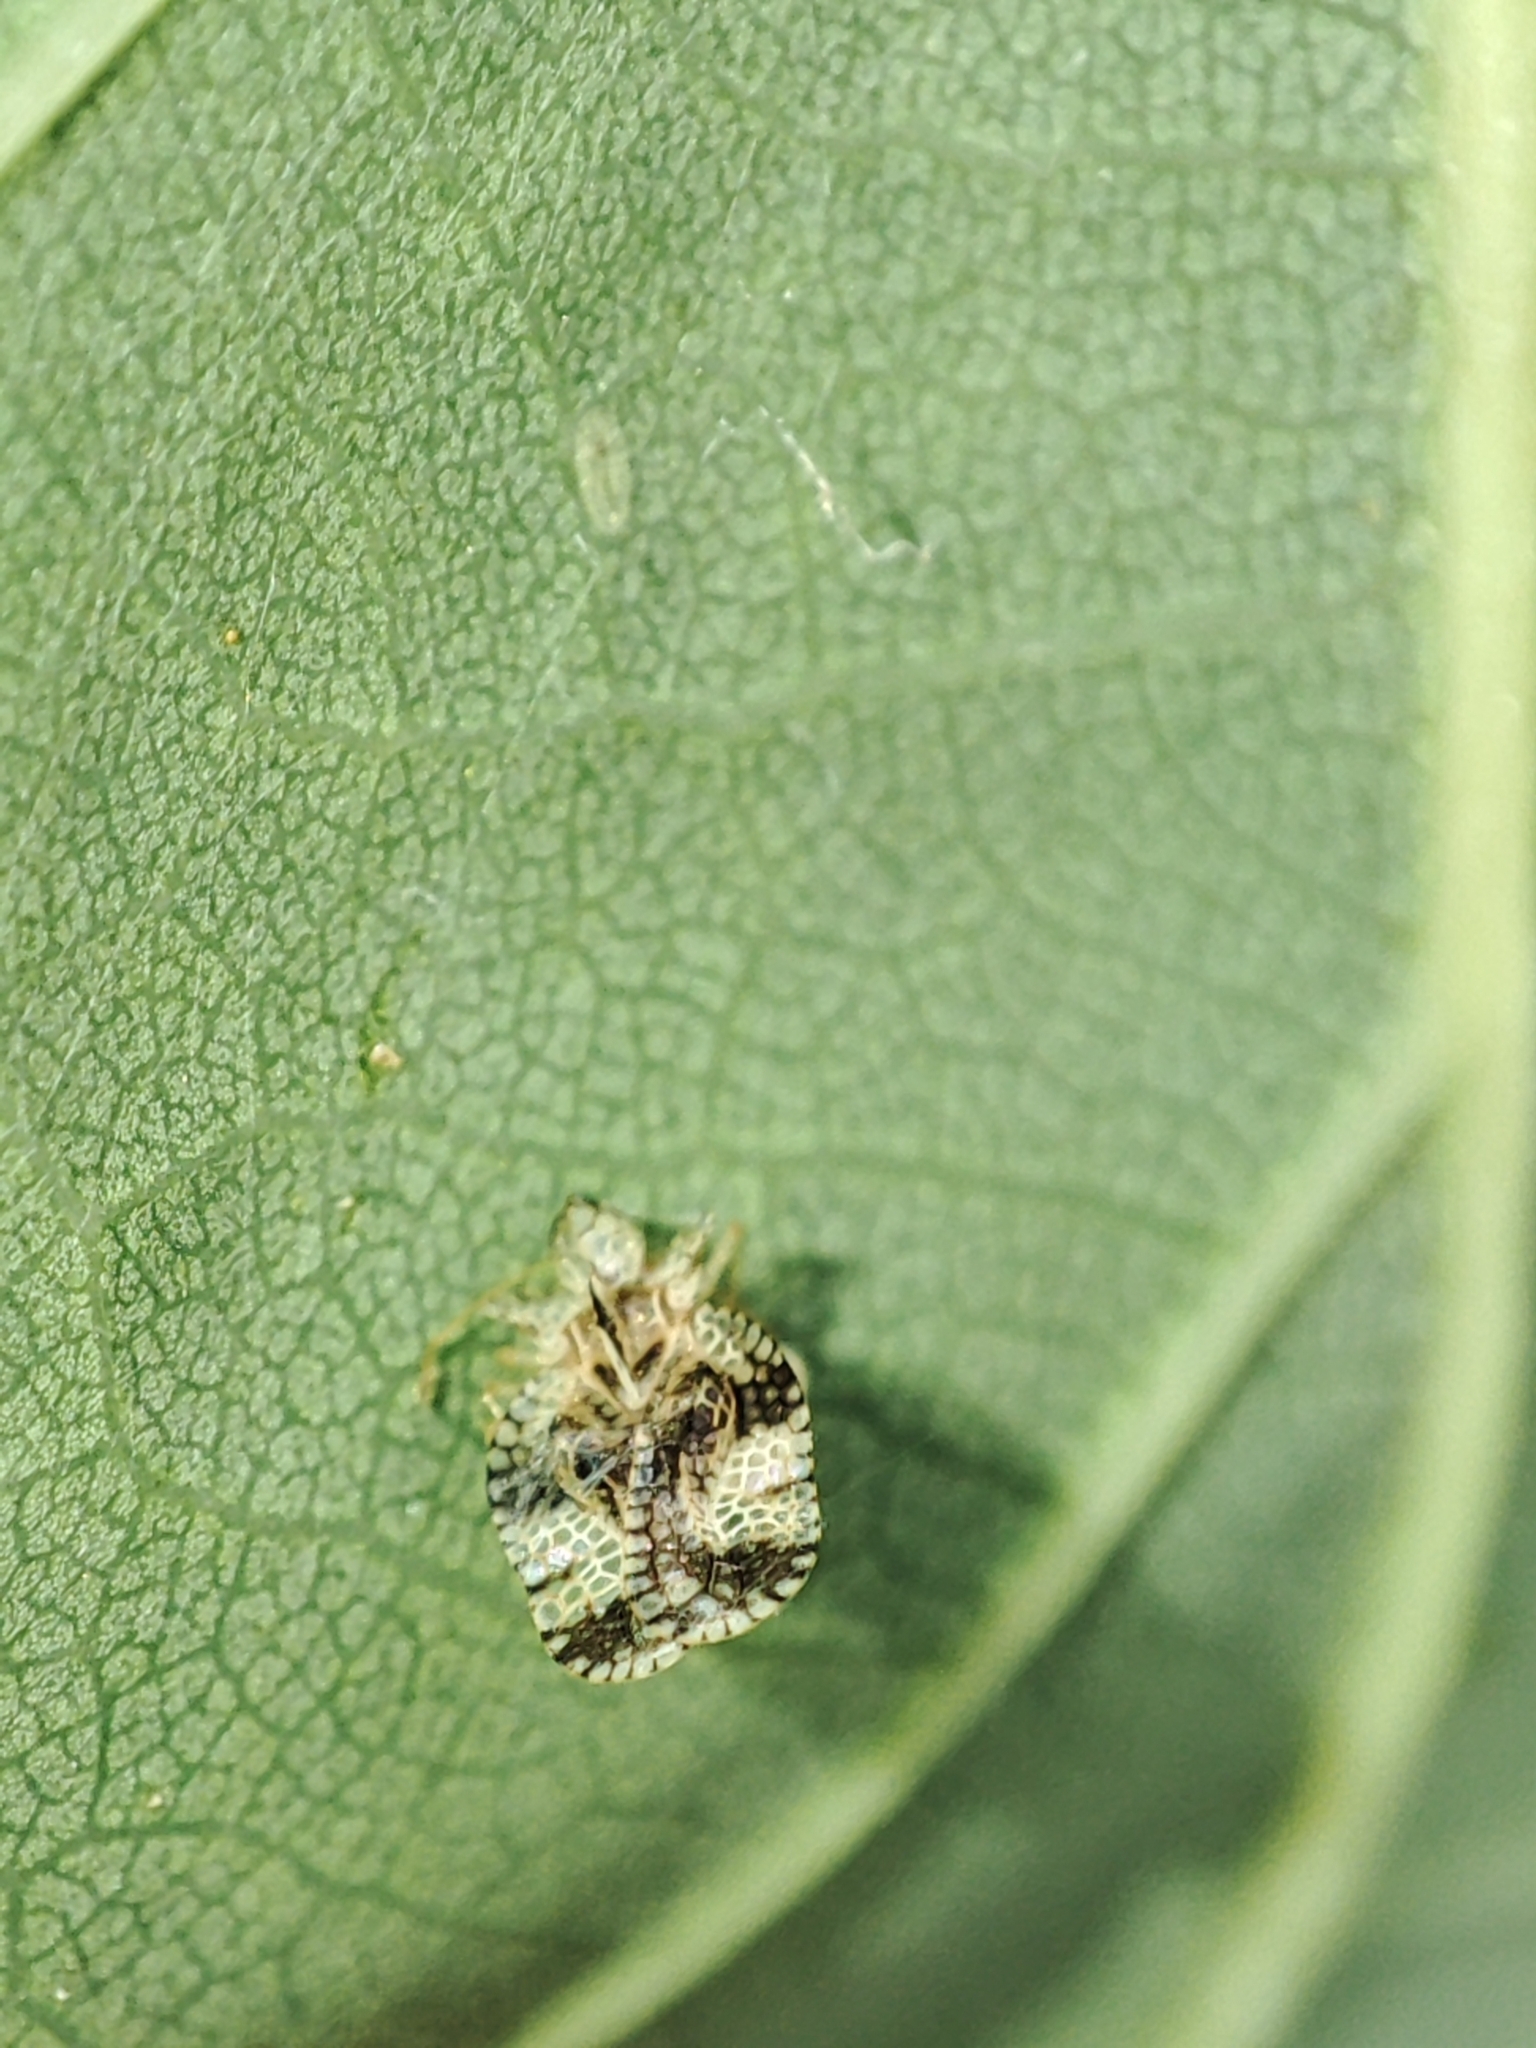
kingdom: Animalia
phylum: Arthropoda
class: Arachnida
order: Araneae
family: Theridiosomatidae
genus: Theridiosoma
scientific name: Theridiosoma gemmosum
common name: Ray spider
